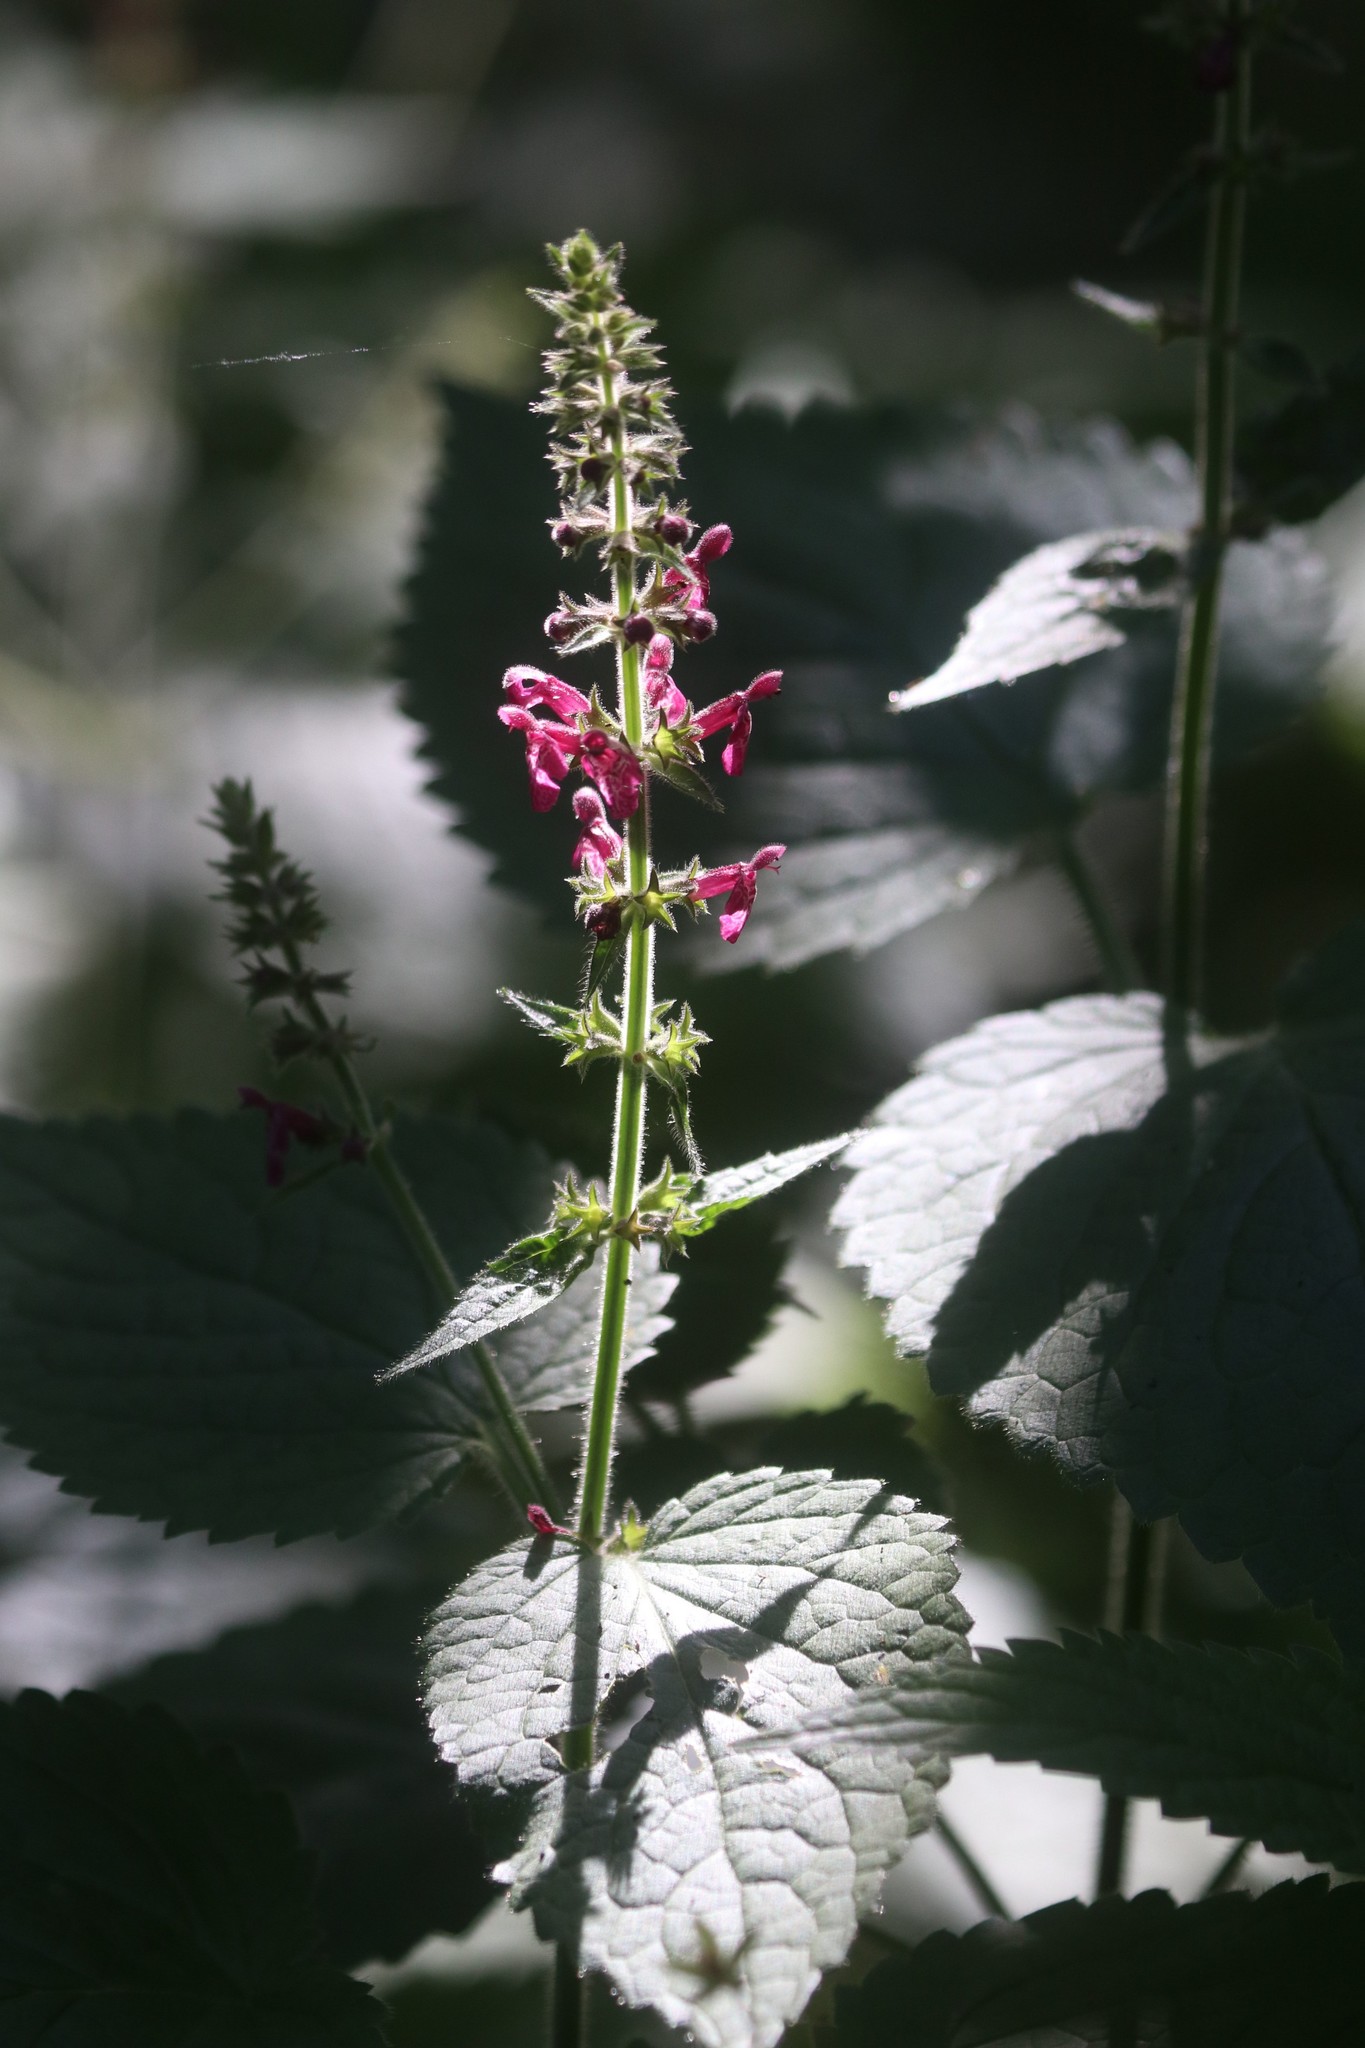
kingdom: Plantae
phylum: Tracheophyta
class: Magnoliopsida
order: Lamiales
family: Lamiaceae
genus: Stachys
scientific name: Stachys sylvatica
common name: Hedge woundwort
